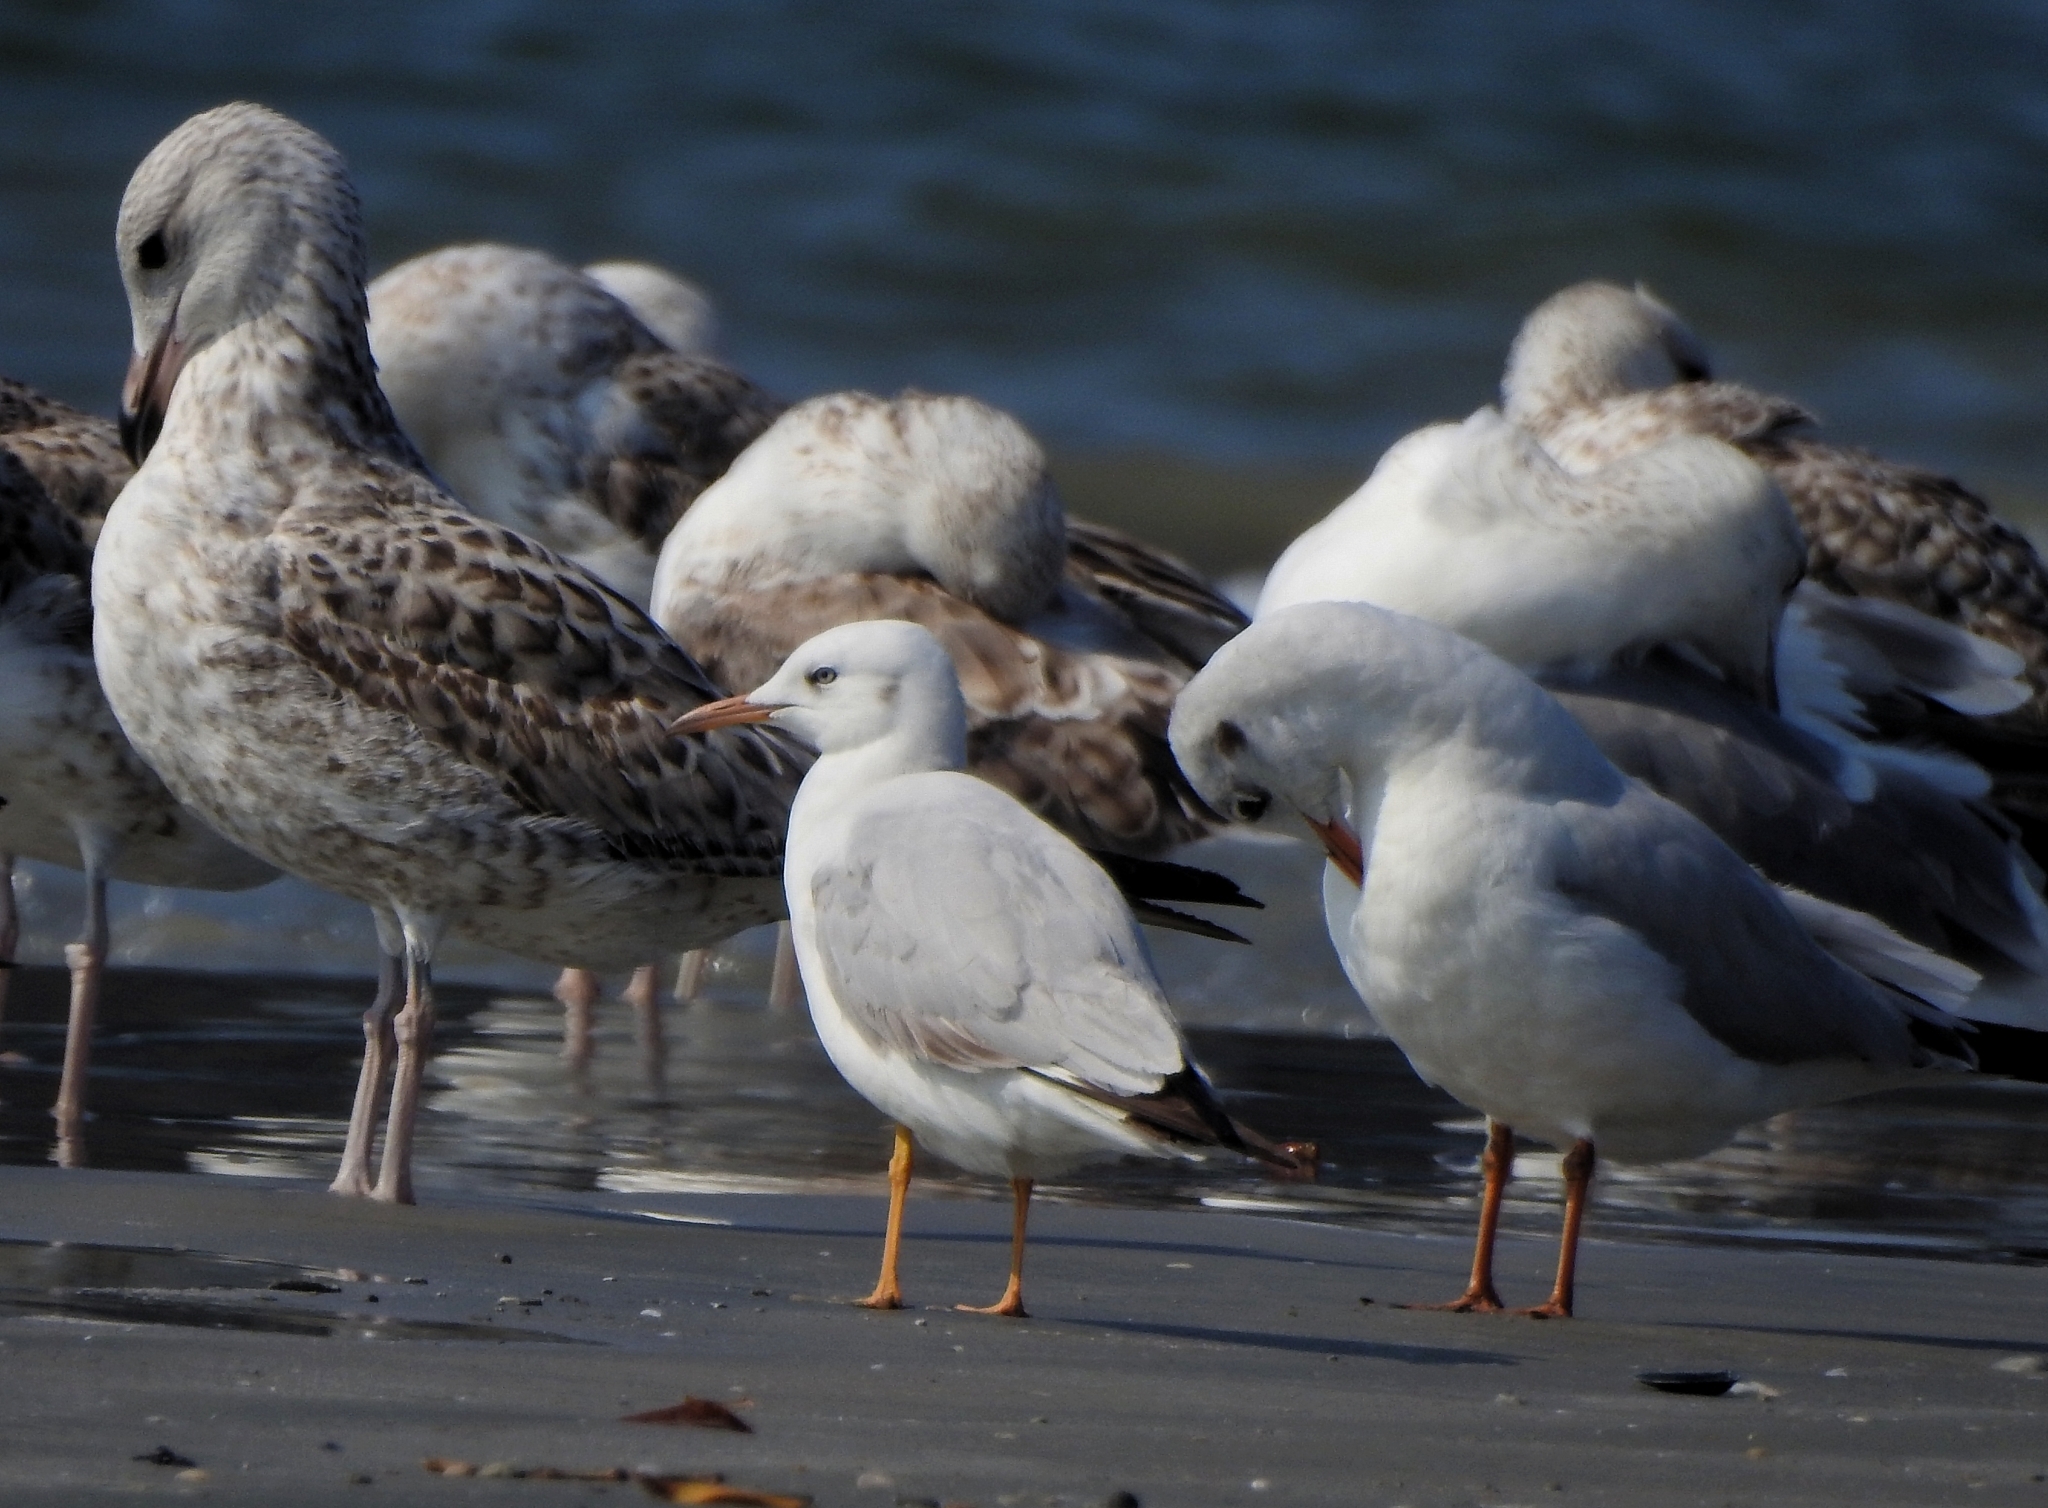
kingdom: Animalia
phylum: Chordata
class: Aves
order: Charadriiformes
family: Laridae
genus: Chroicocephalus
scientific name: Chroicocephalus genei
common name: Slender-billed gull
